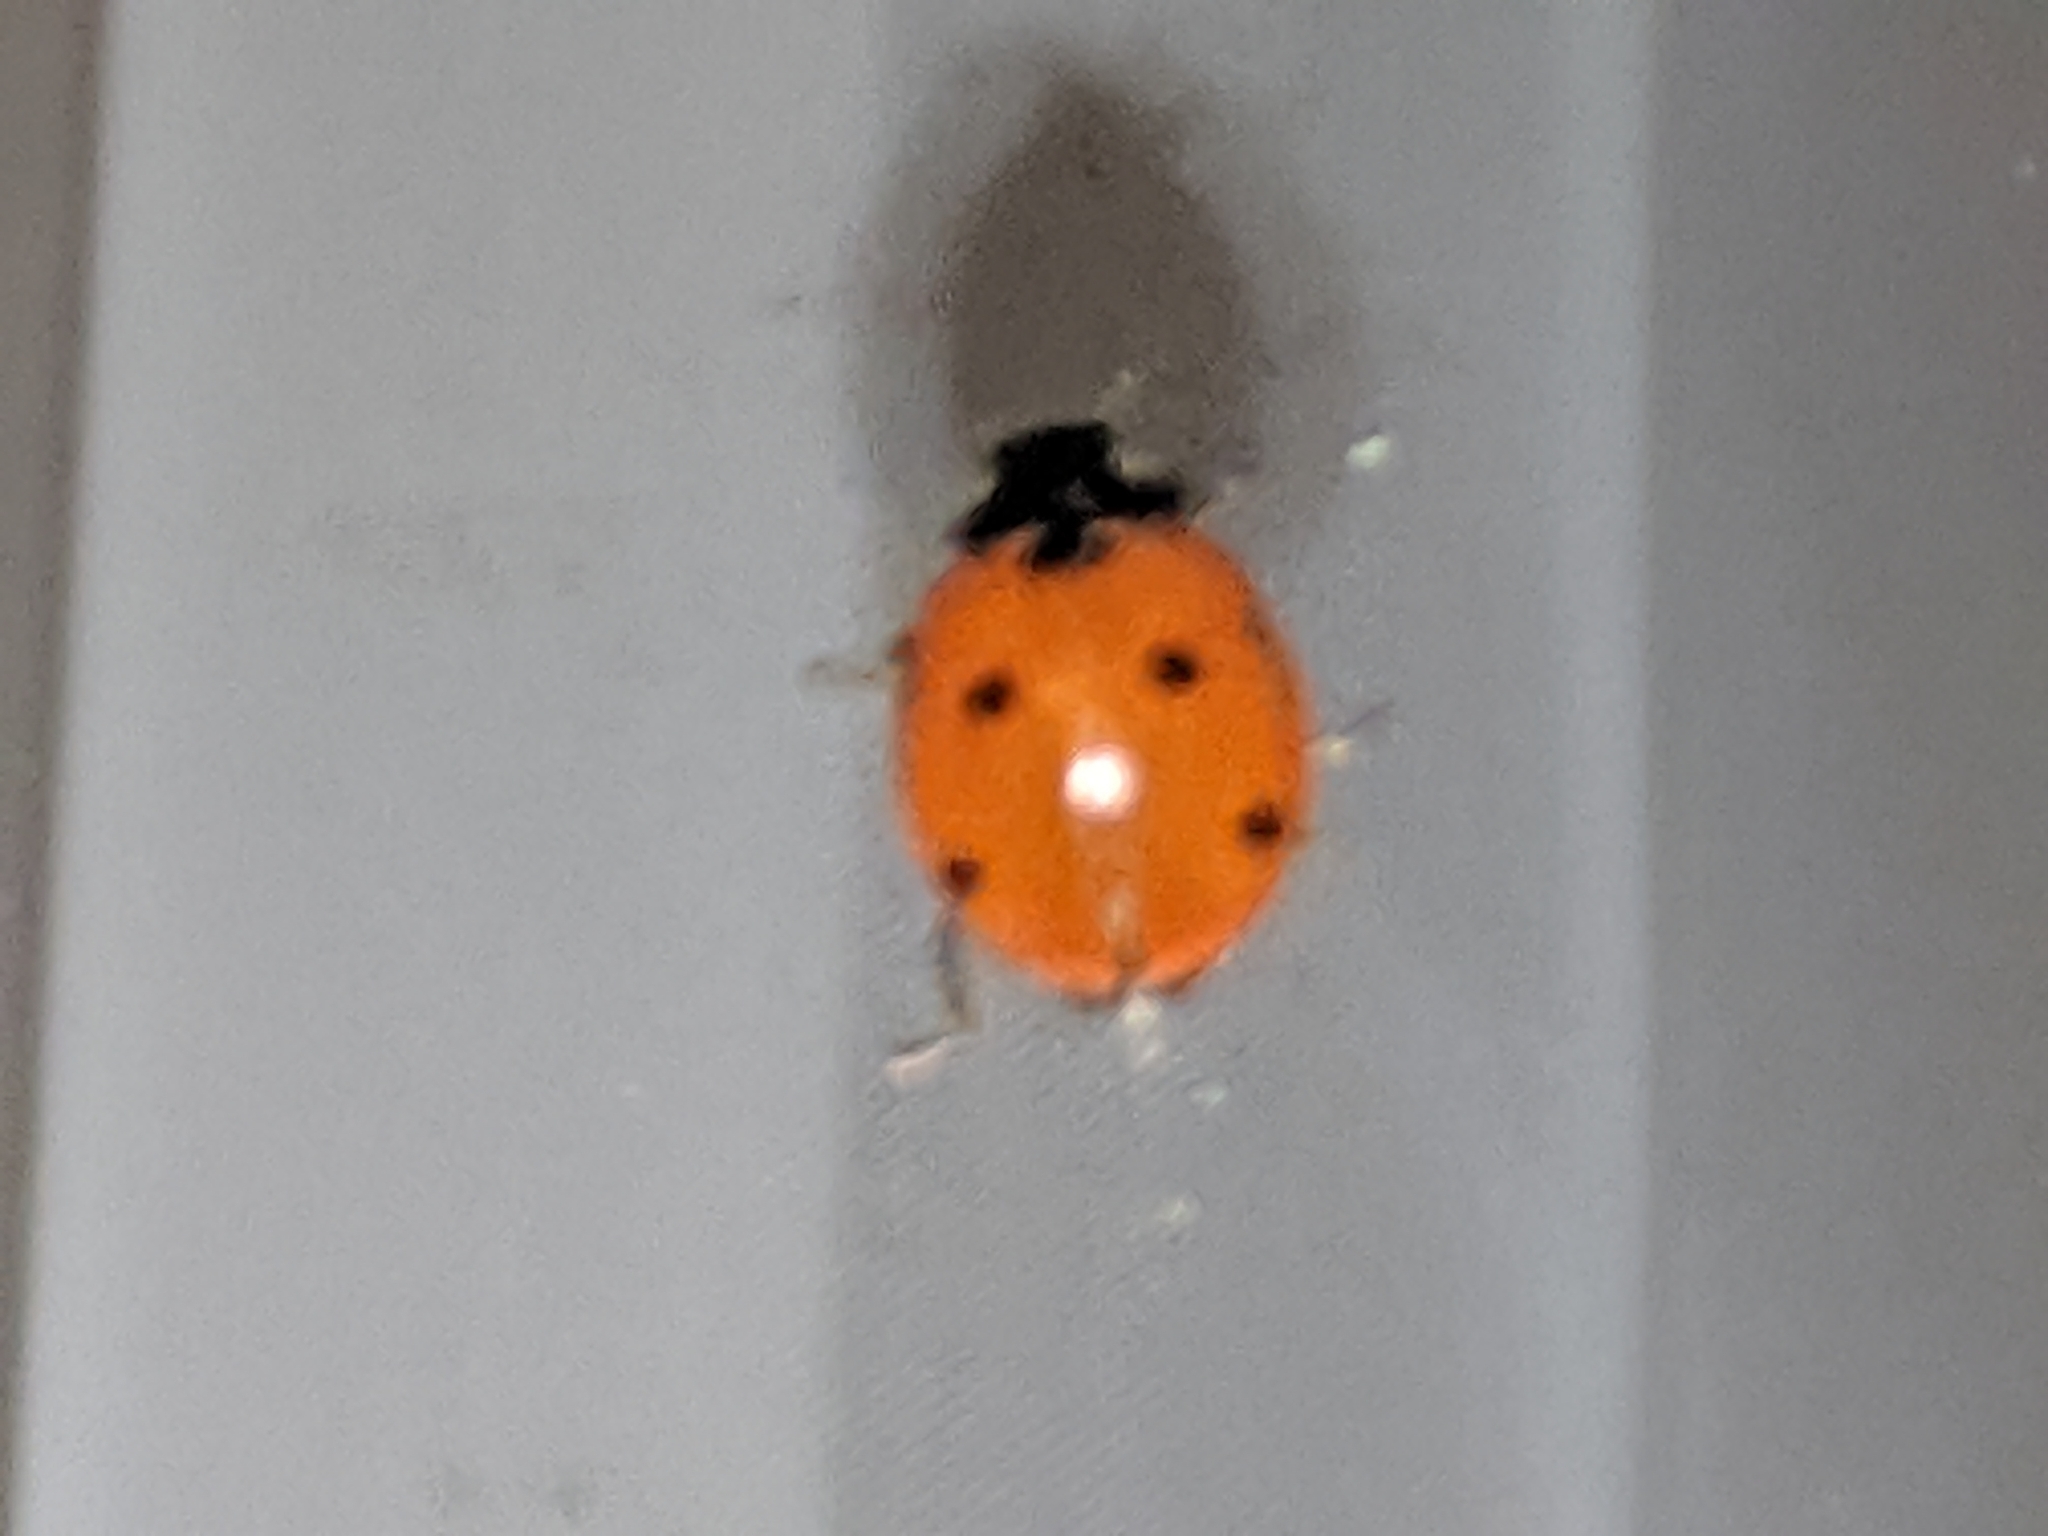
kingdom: Animalia
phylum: Arthropoda
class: Insecta
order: Coleoptera
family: Coccinellidae
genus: Coccinella
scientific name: Coccinella septempunctata
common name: Sevenspotted lady beetle
